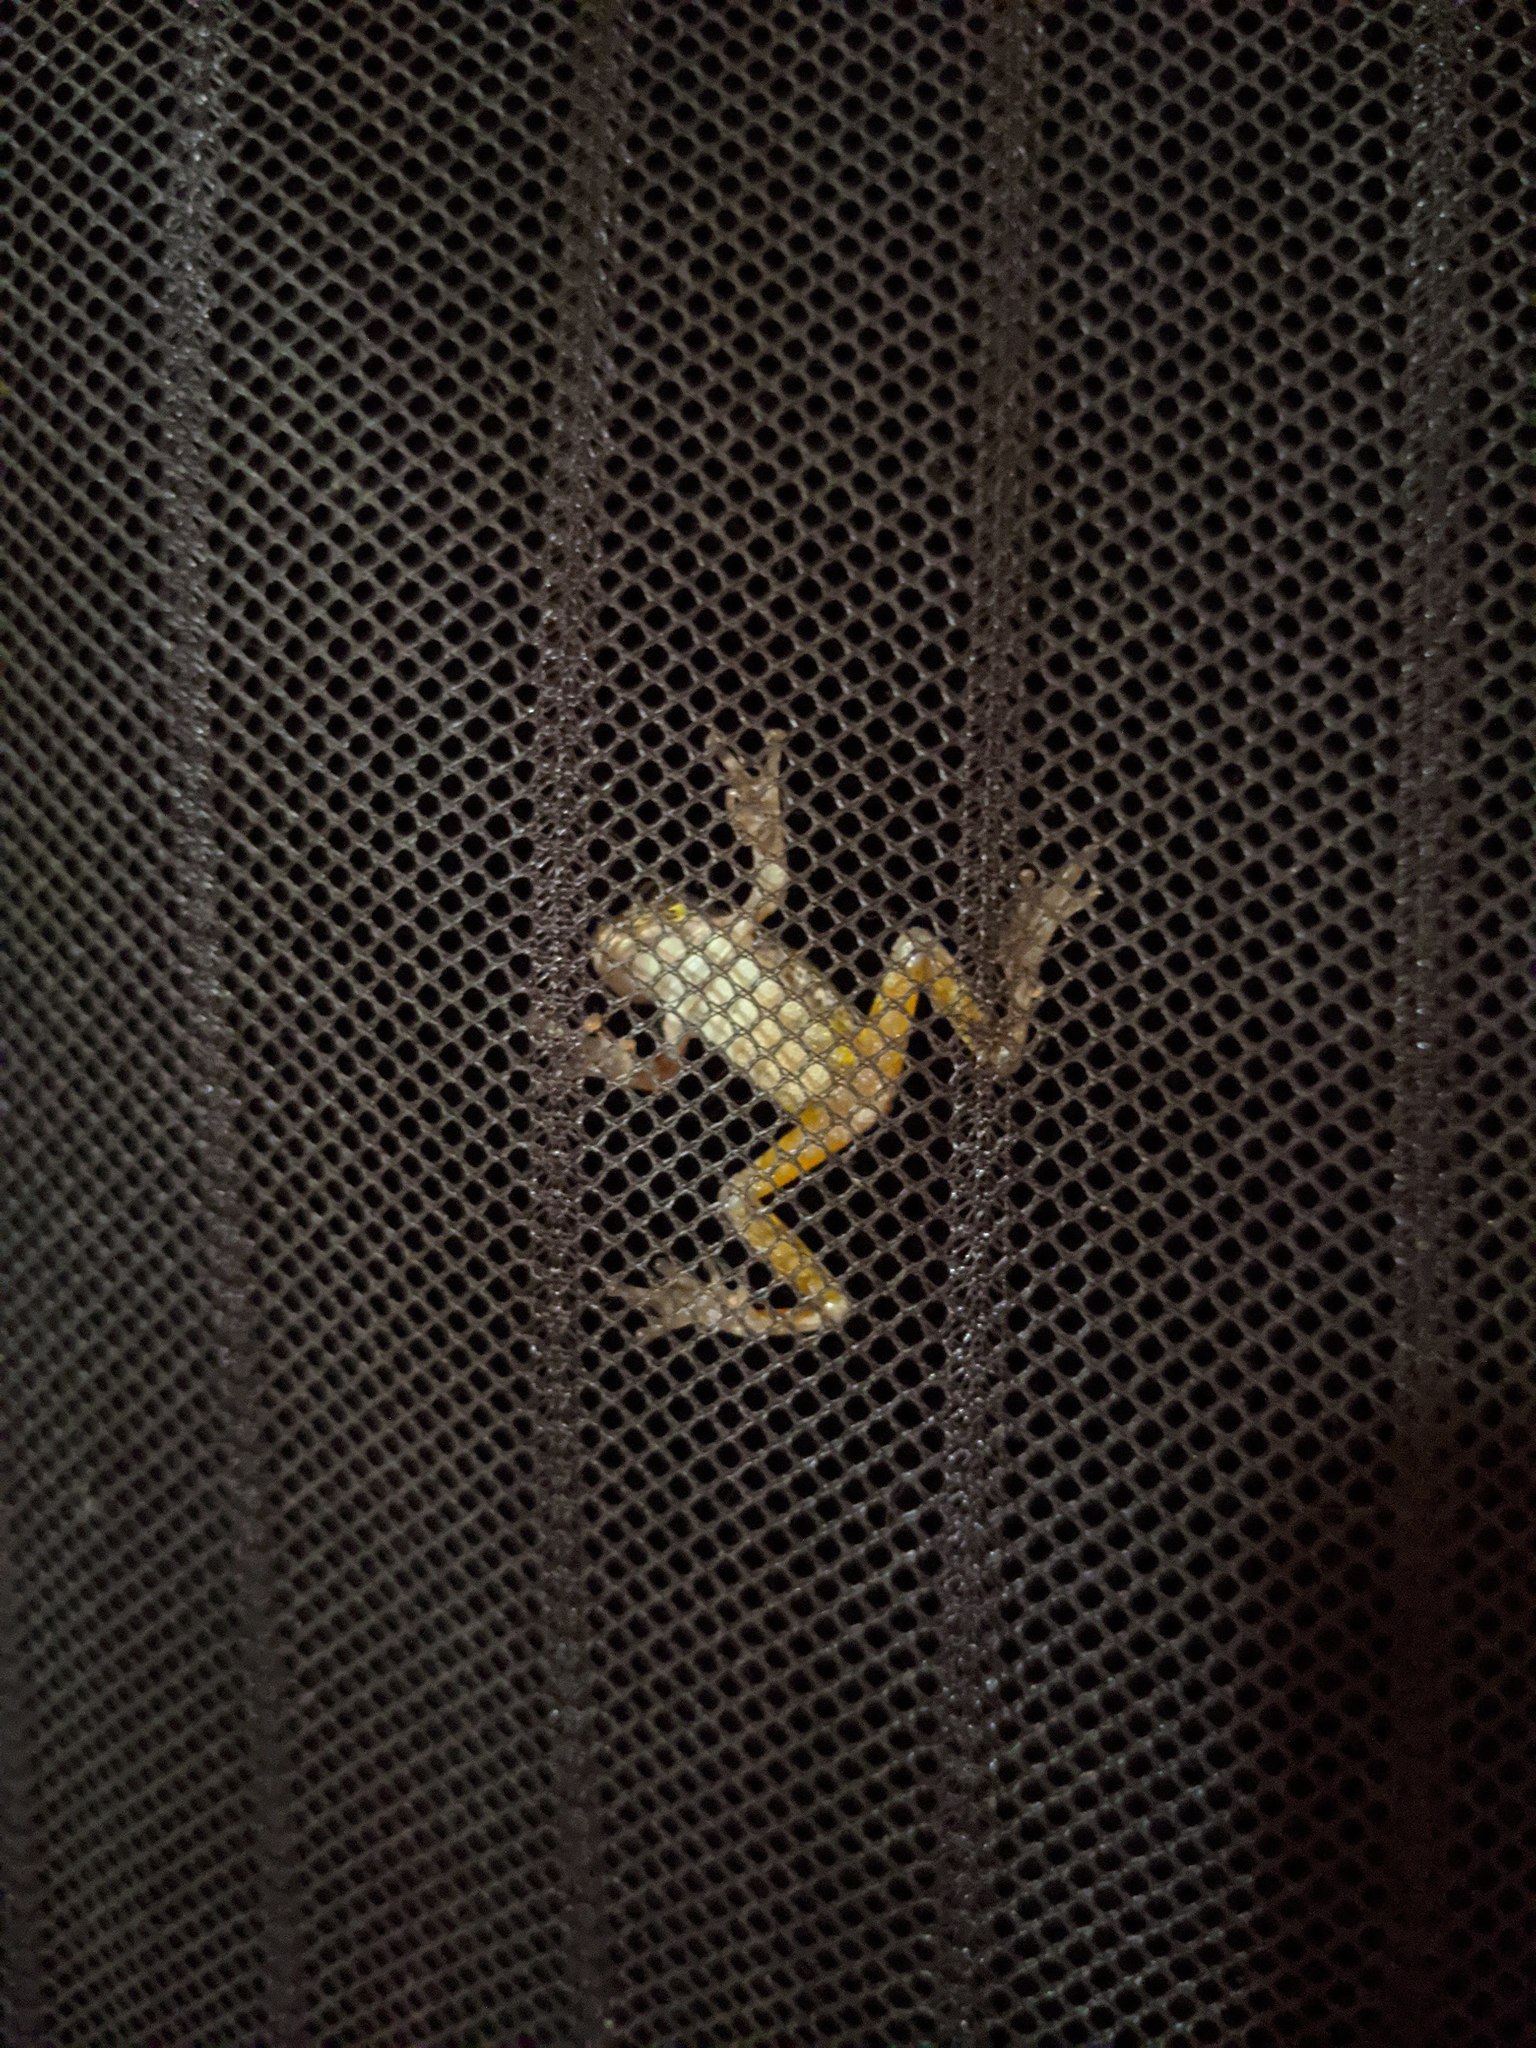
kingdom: Animalia
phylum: Chordata
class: Amphibia
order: Anura
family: Hylidae
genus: Dryophytes
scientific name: Dryophytes versicolor
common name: Gray treefrog
